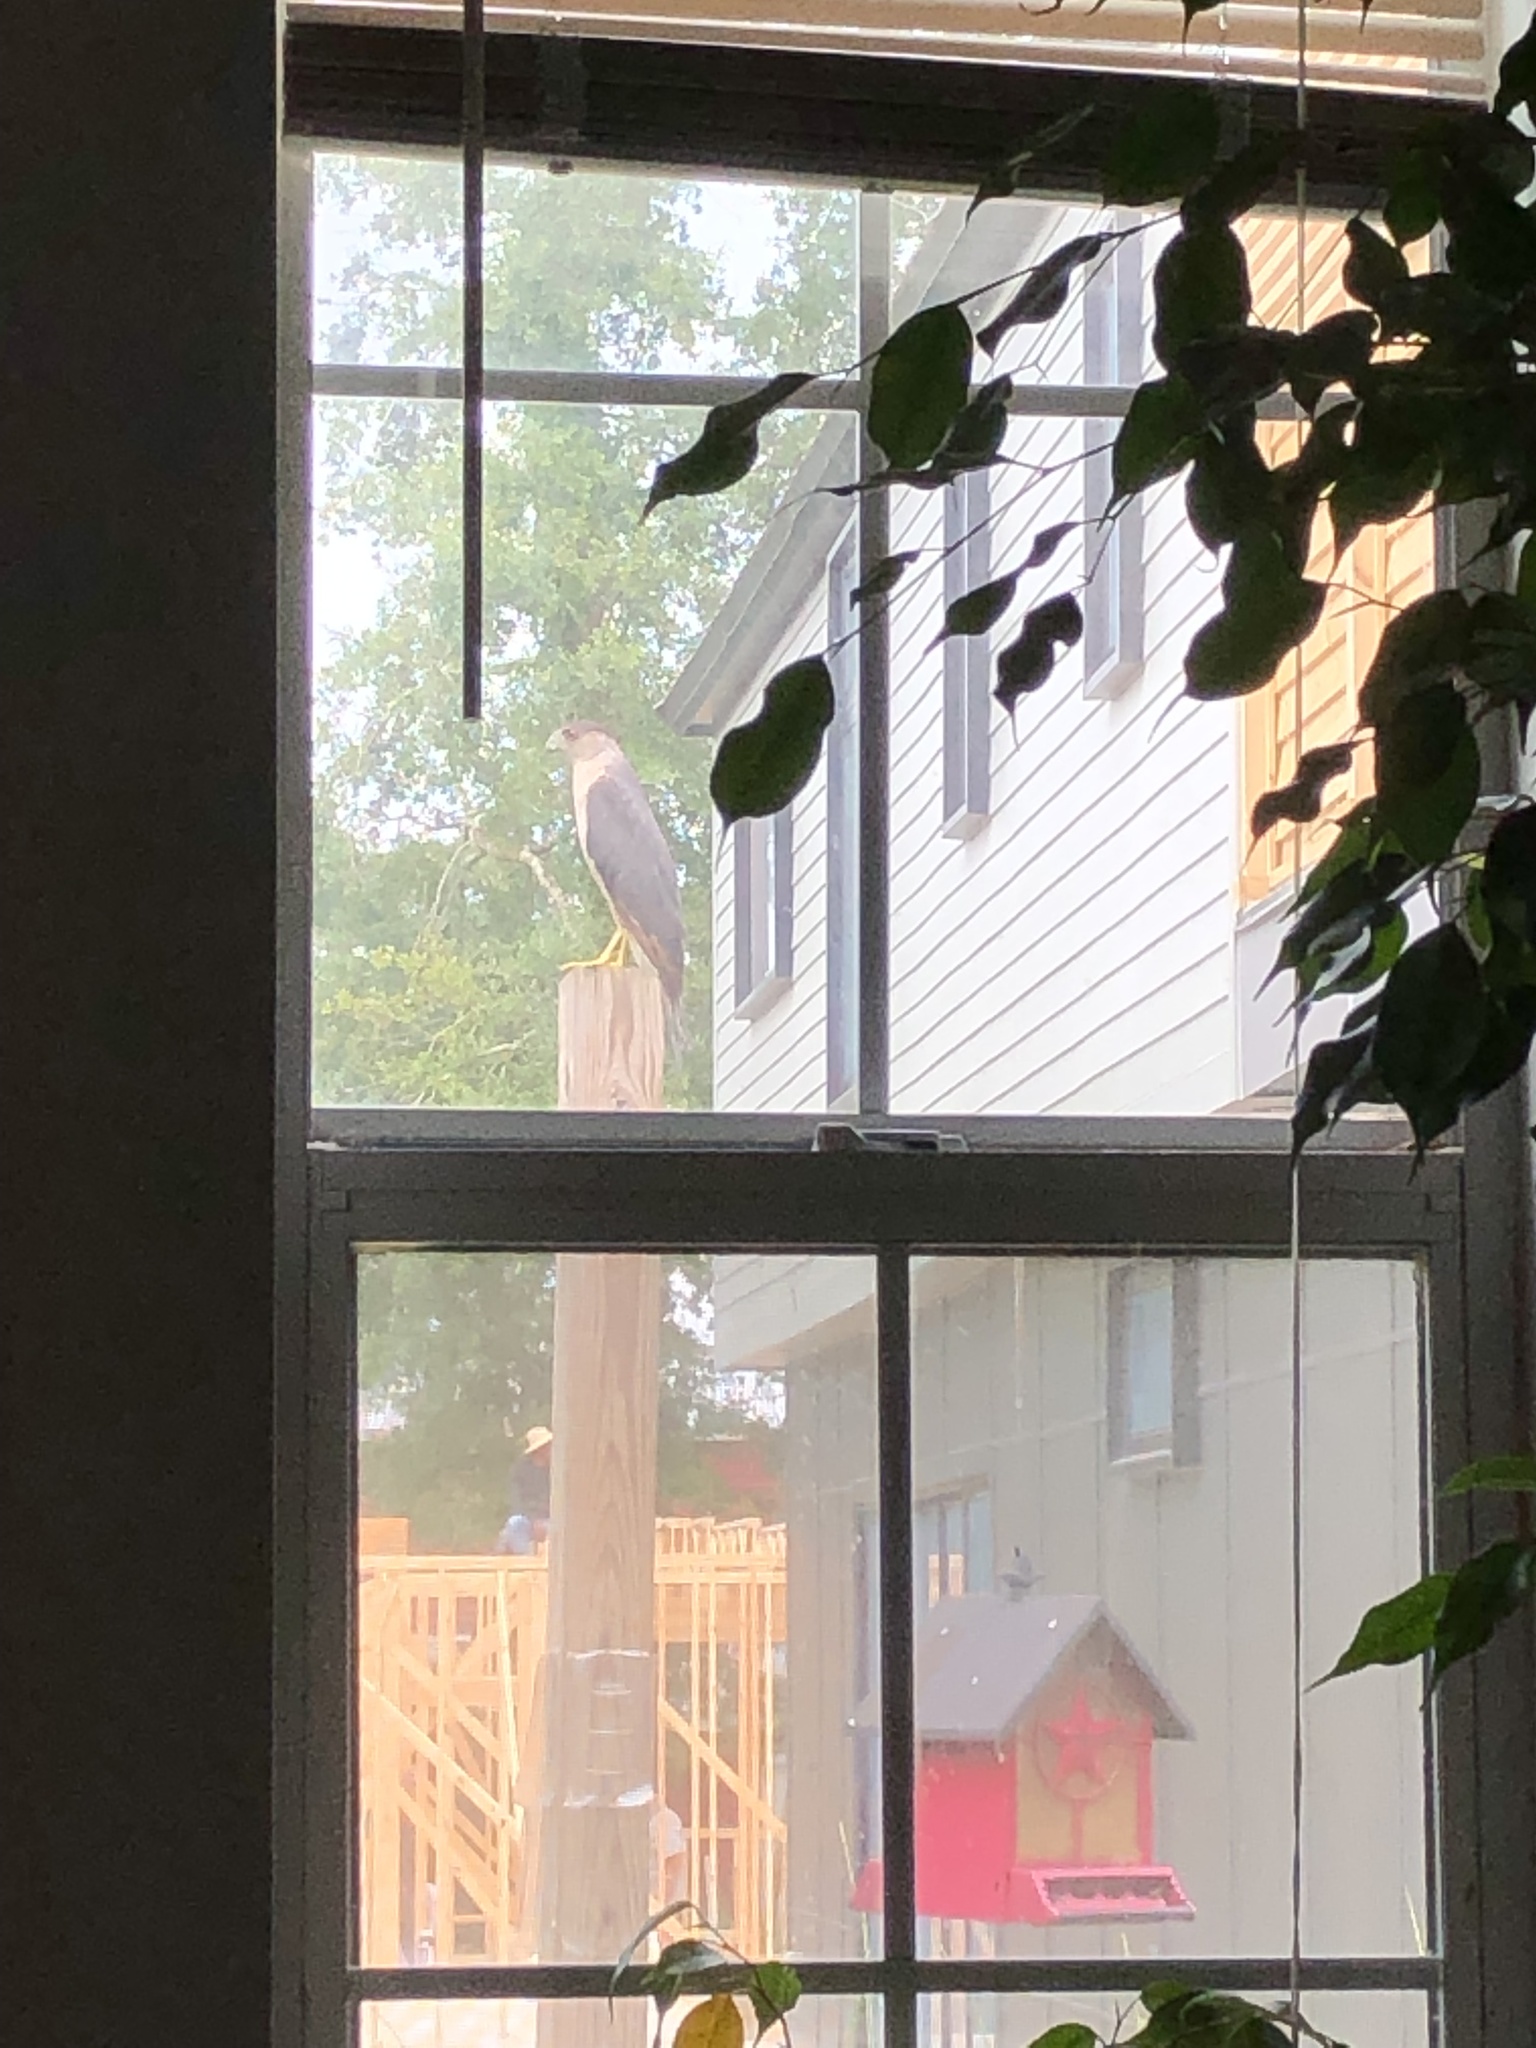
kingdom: Animalia
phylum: Chordata
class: Aves
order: Accipitriformes
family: Accipitridae
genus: Accipiter
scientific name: Accipiter cooperii
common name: Cooper's hawk
